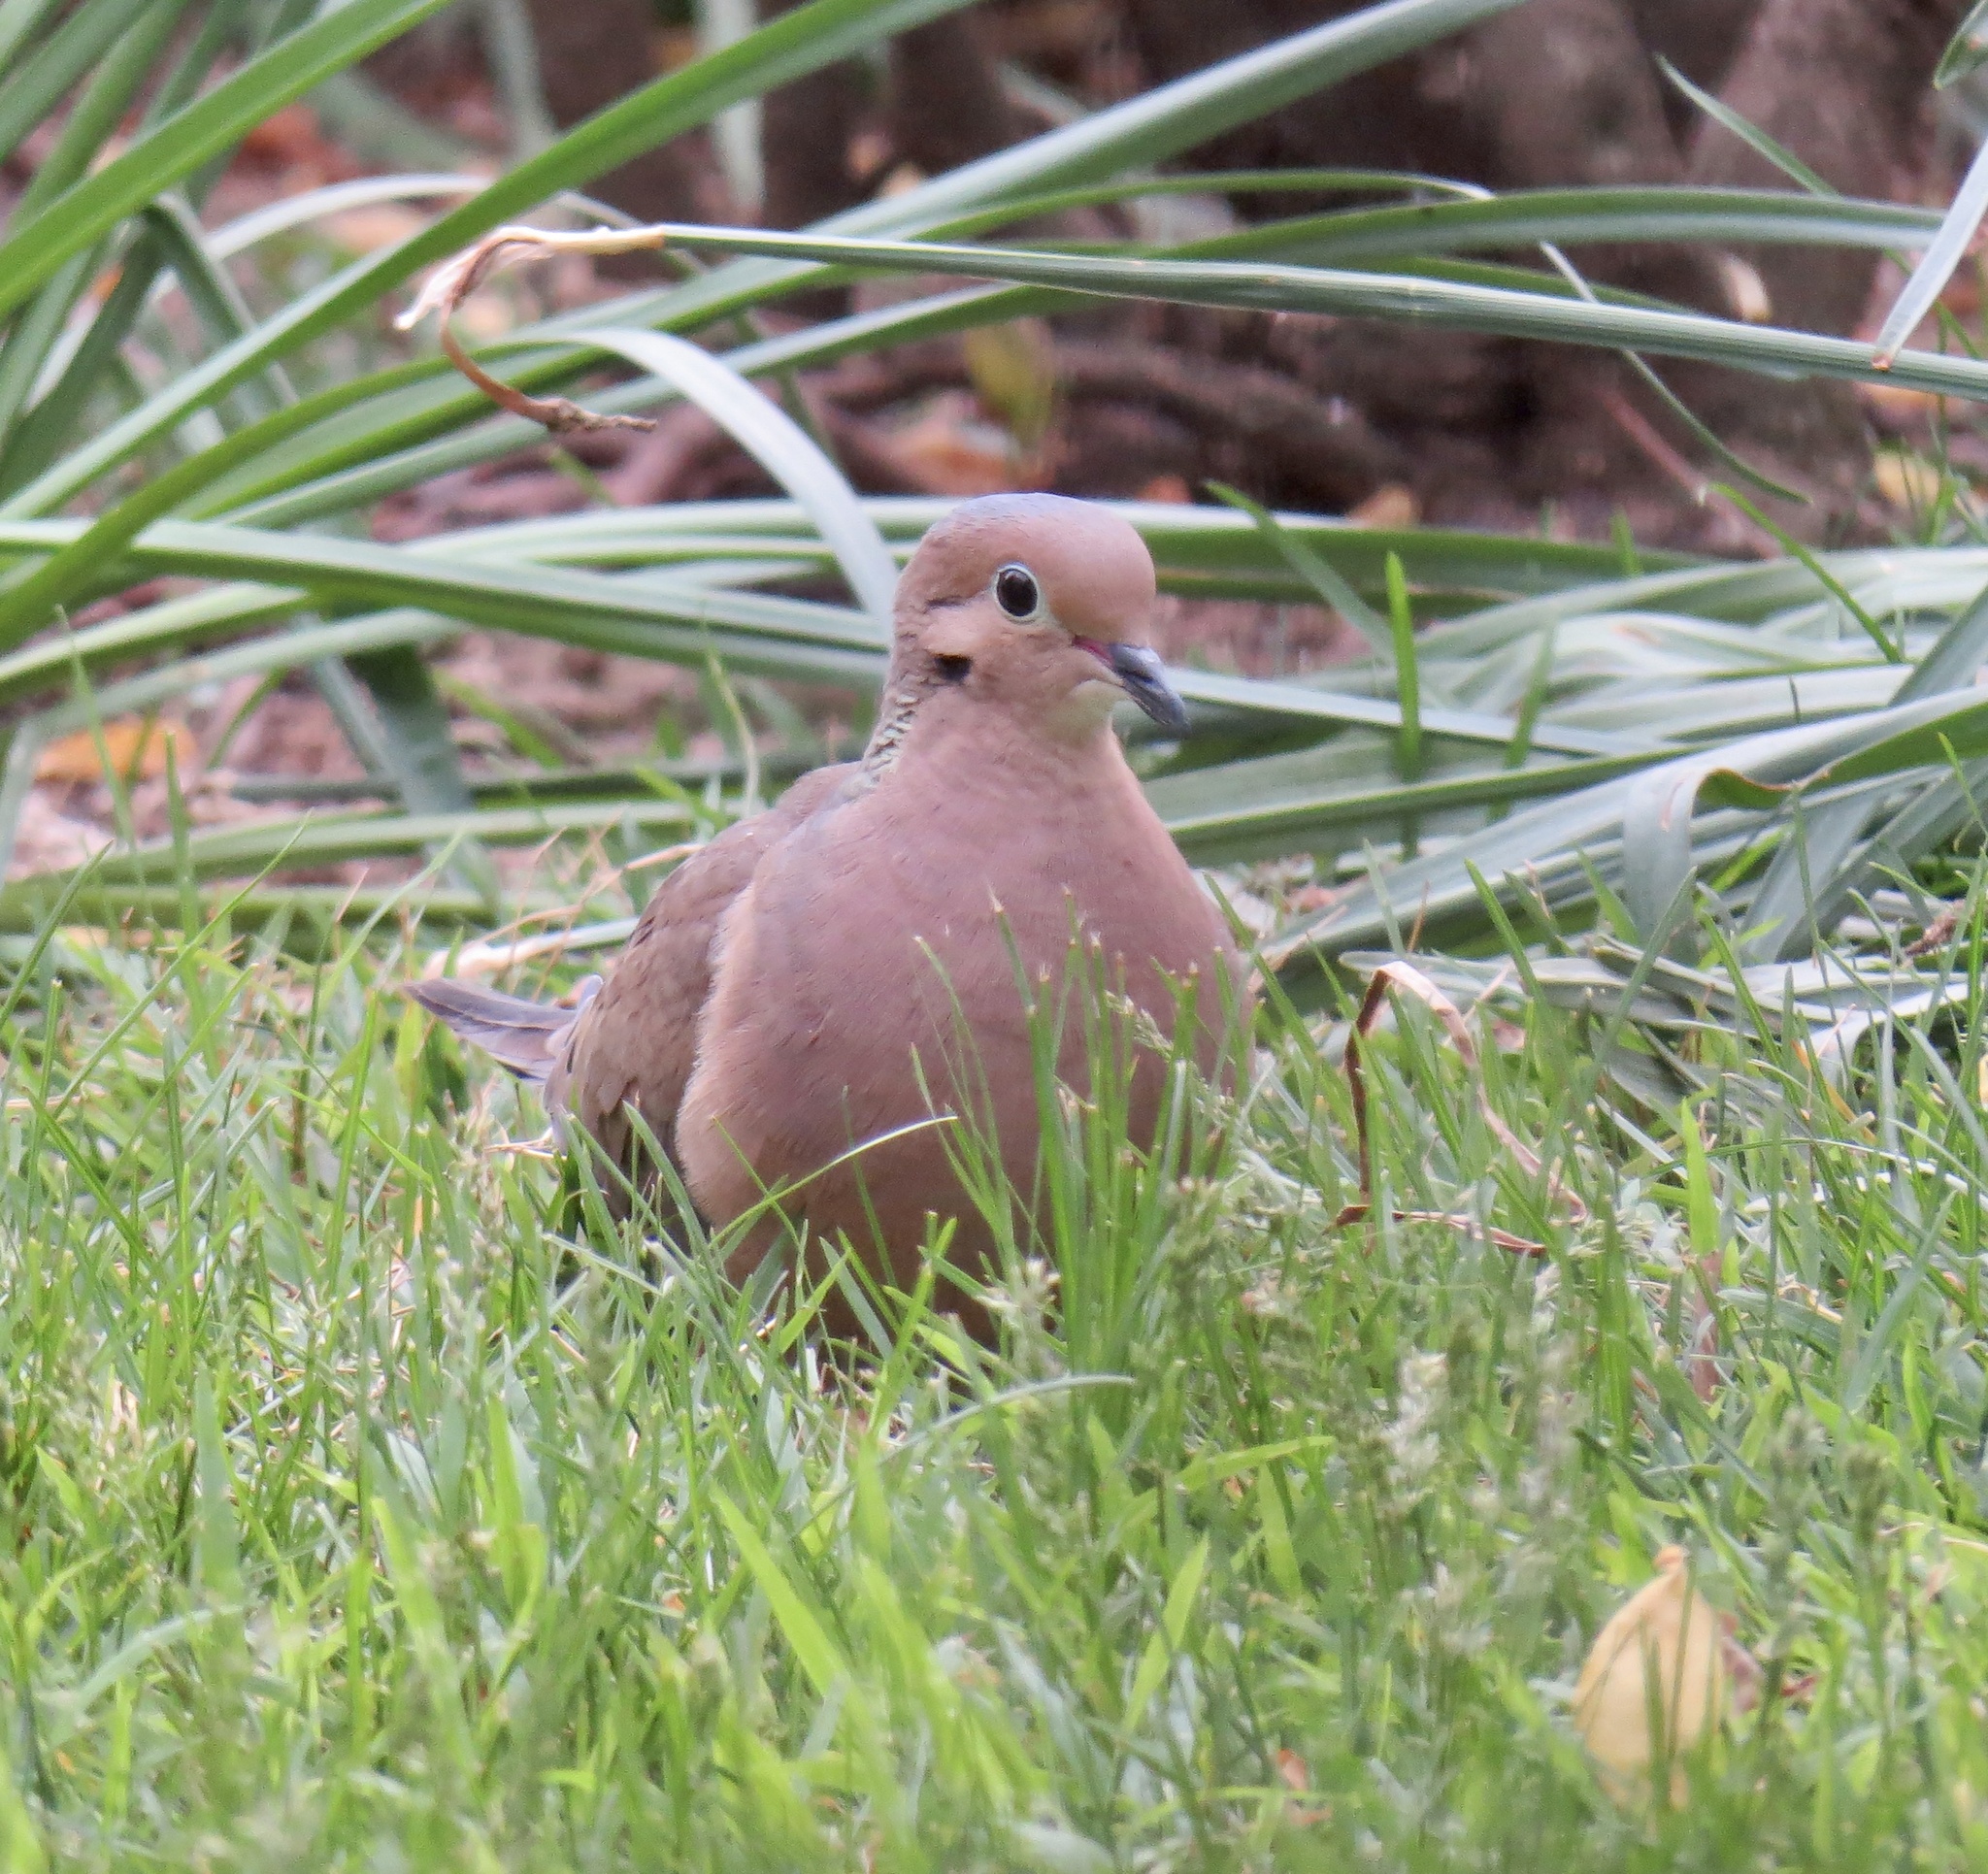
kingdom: Animalia
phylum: Chordata
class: Aves
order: Columbiformes
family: Columbidae
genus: Zenaida
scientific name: Zenaida macroura
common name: Mourning dove
